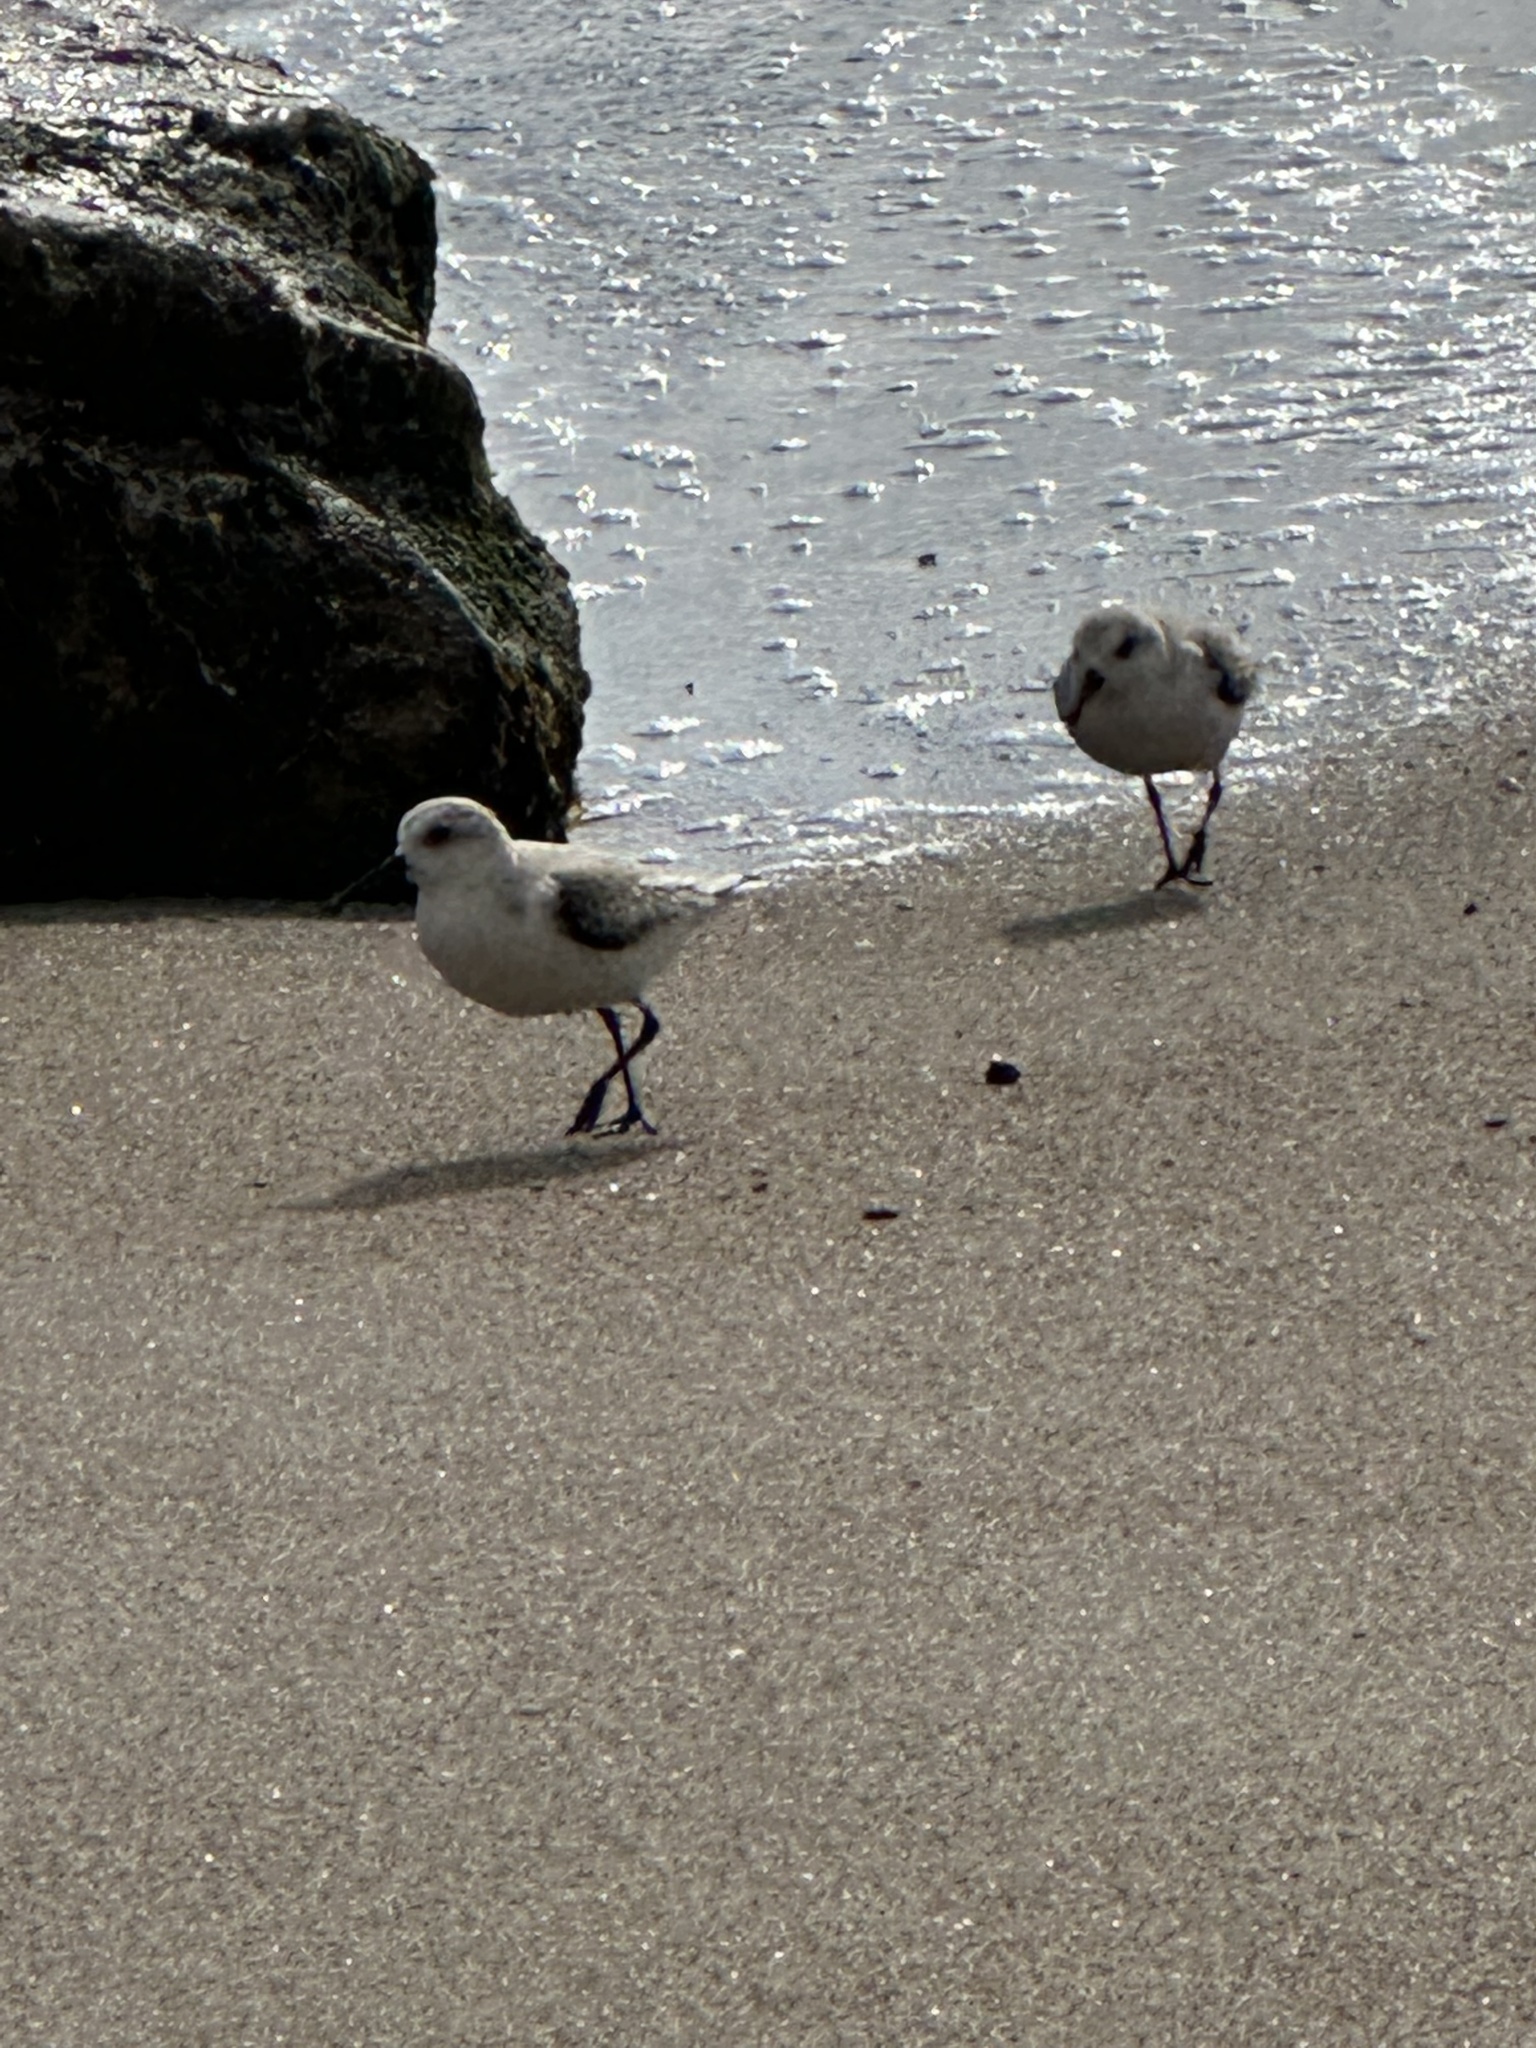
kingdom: Animalia
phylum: Chordata
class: Aves
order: Charadriiformes
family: Scolopacidae
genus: Calidris
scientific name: Calidris alba
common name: Sanderling
